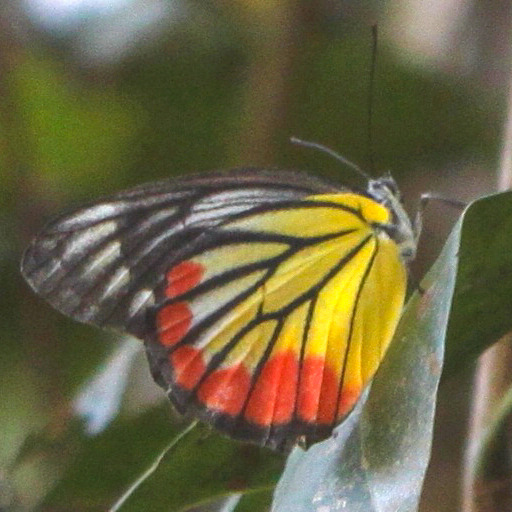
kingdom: Animalia
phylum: Arthropoda
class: Insecta
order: Lepidoptera
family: Pieridae
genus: Delias
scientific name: Delias hyparete
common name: Painted jezebel
